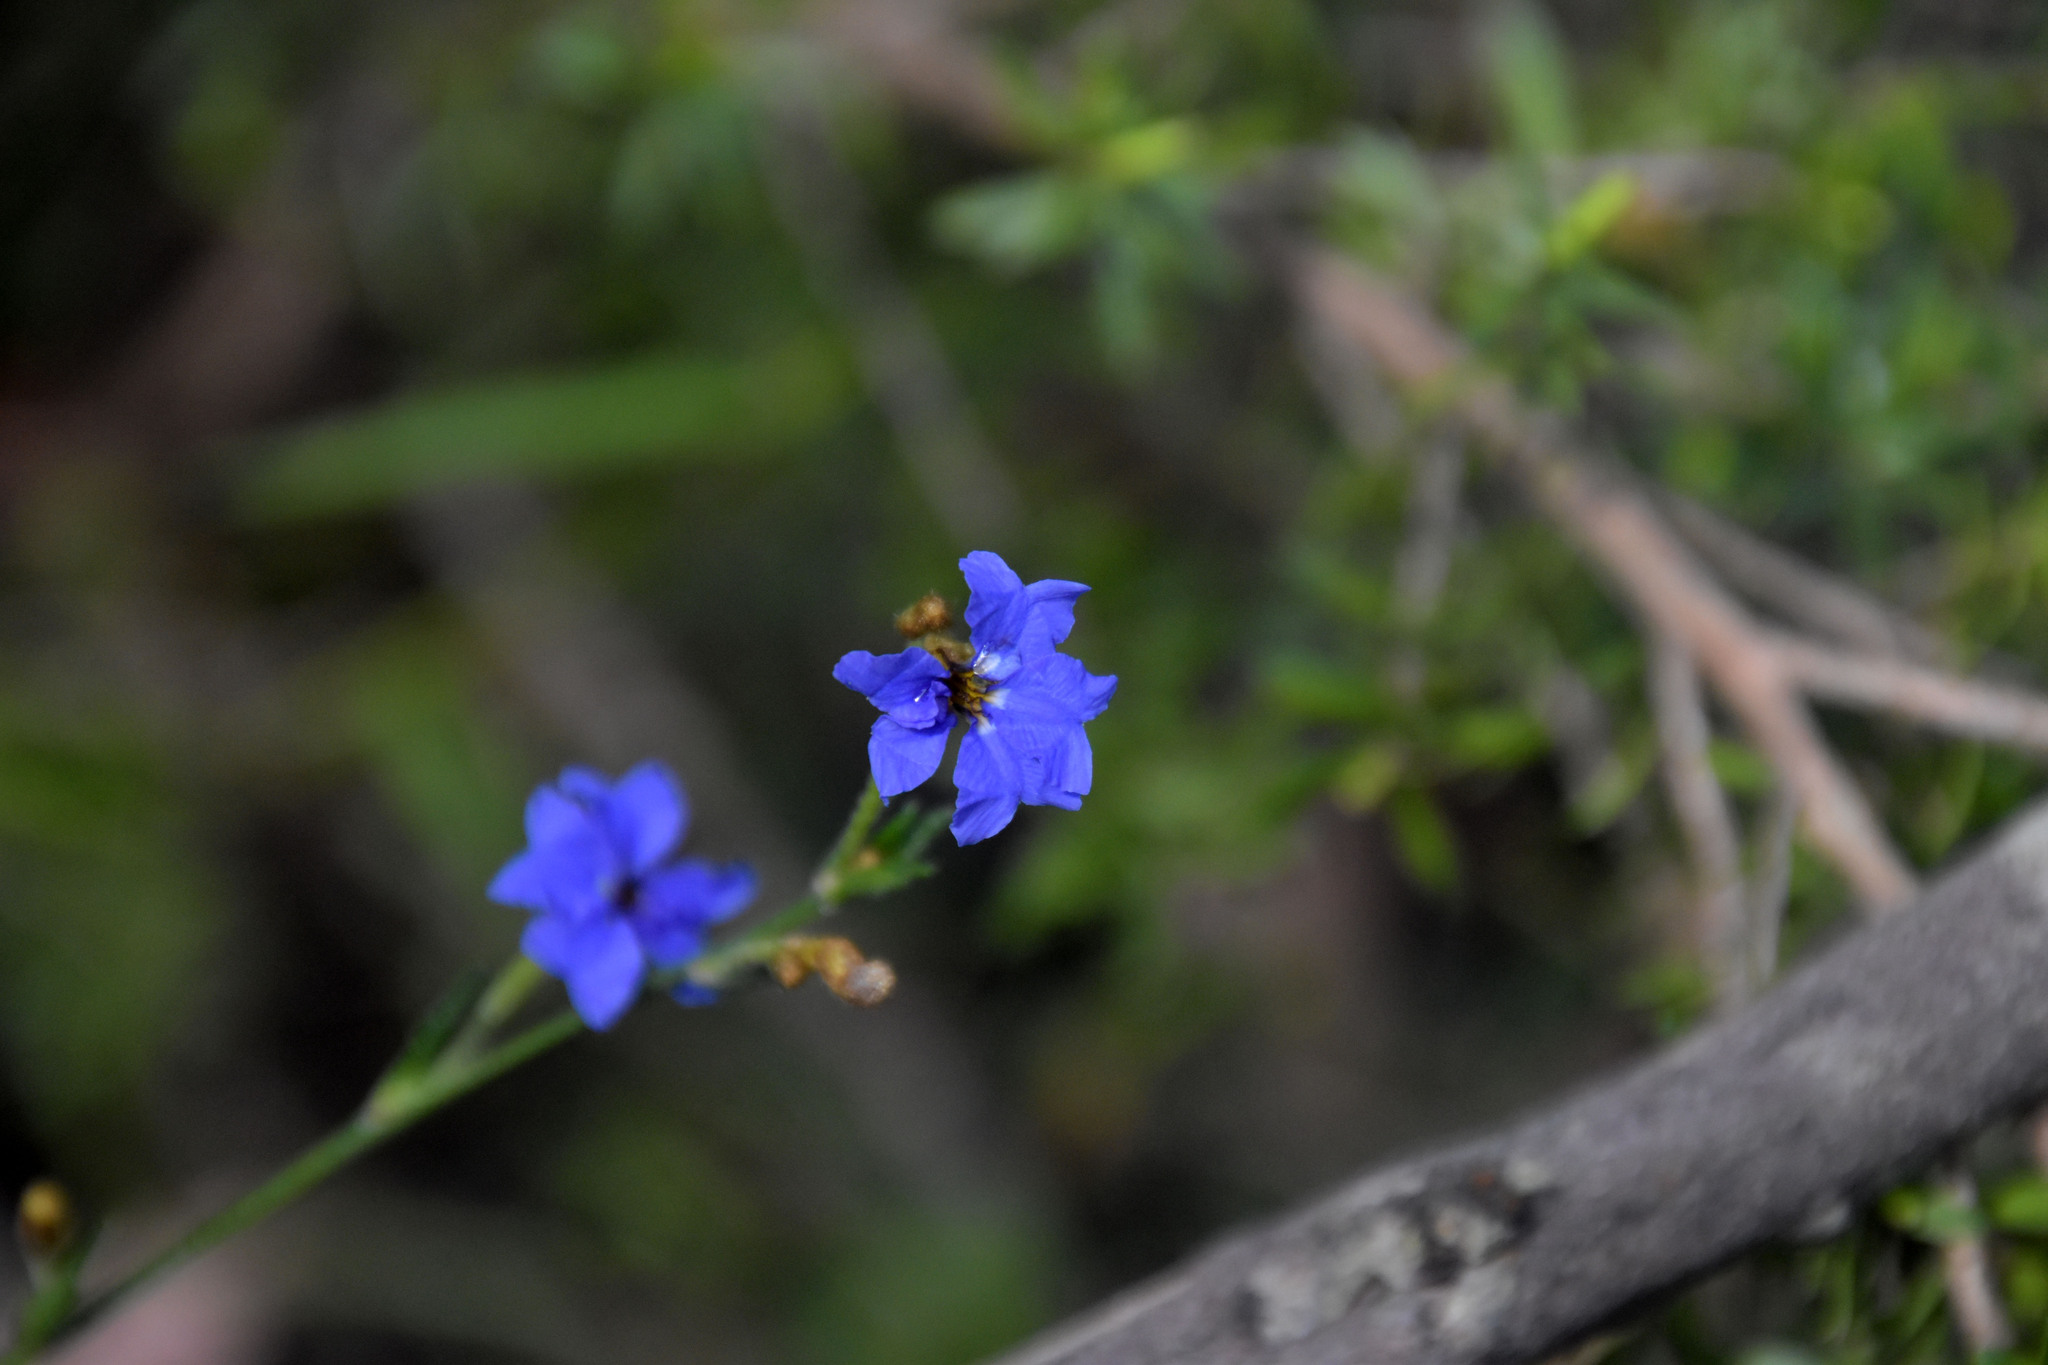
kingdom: Plantae
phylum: Tracheophyta
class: Magnoliopsida
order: Asterales
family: Goodeniaceae
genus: Dampiera
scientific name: Dampiera stricta
